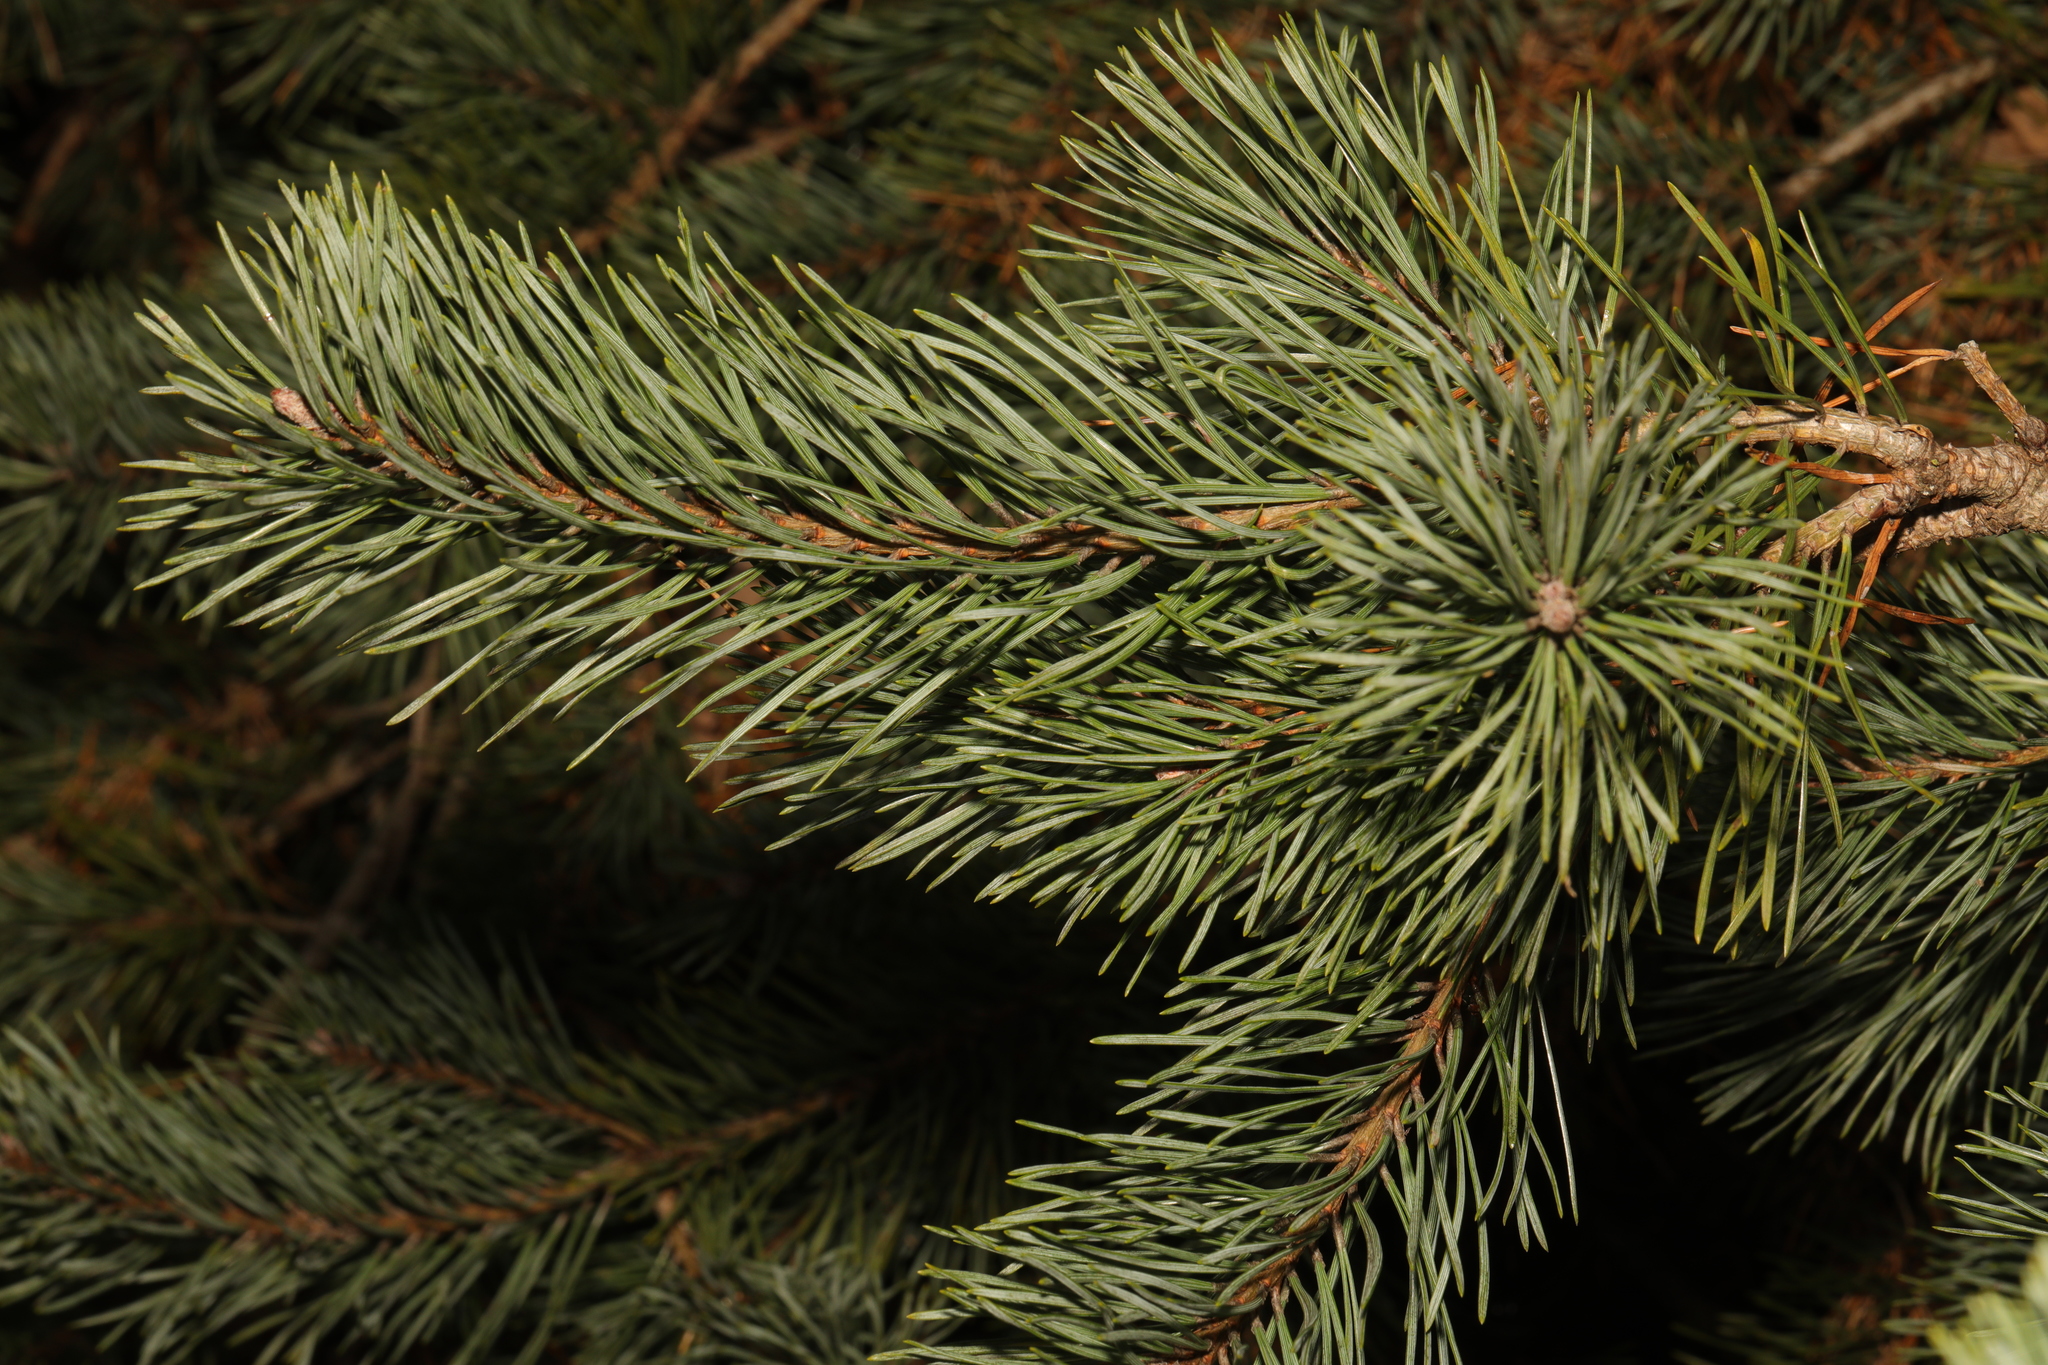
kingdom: Plantae
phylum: Tracheophyta
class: Pinopsida
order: Pinales
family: Pinaceae
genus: Pinus
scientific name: Pinus sylvestris
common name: Scots pine
